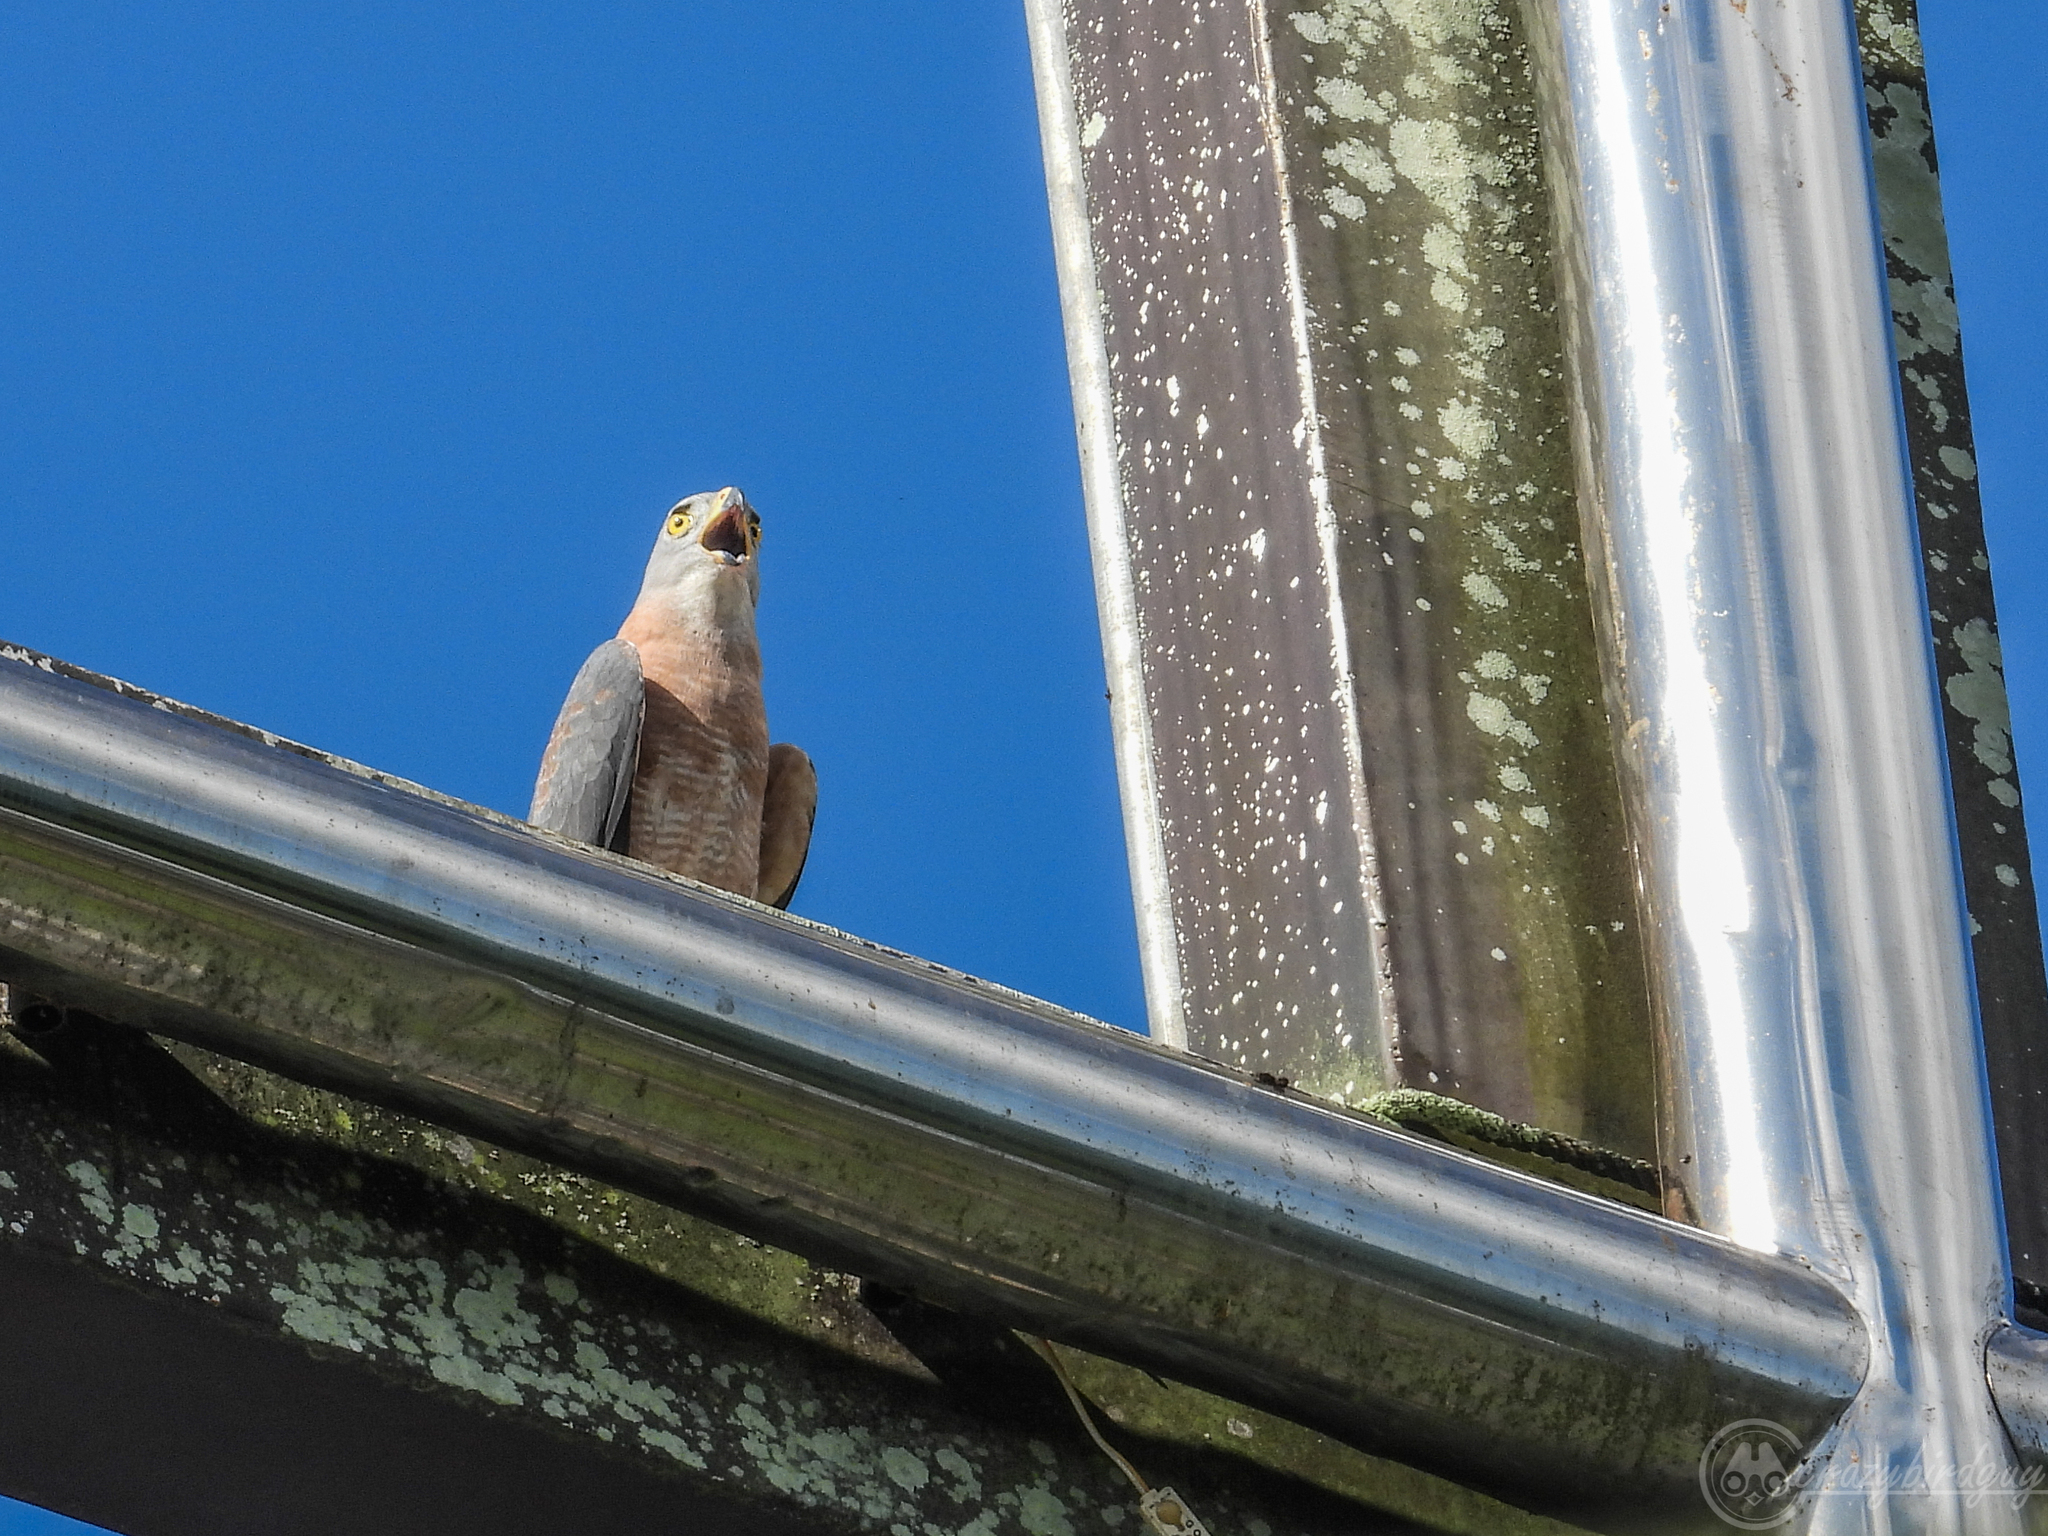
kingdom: Animalia
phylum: Chordata
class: Aves
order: Accipitriformes
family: Accipitridae
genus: Accipiter
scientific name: Accipiter cirrocephalus
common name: Collared sparrowhawk
